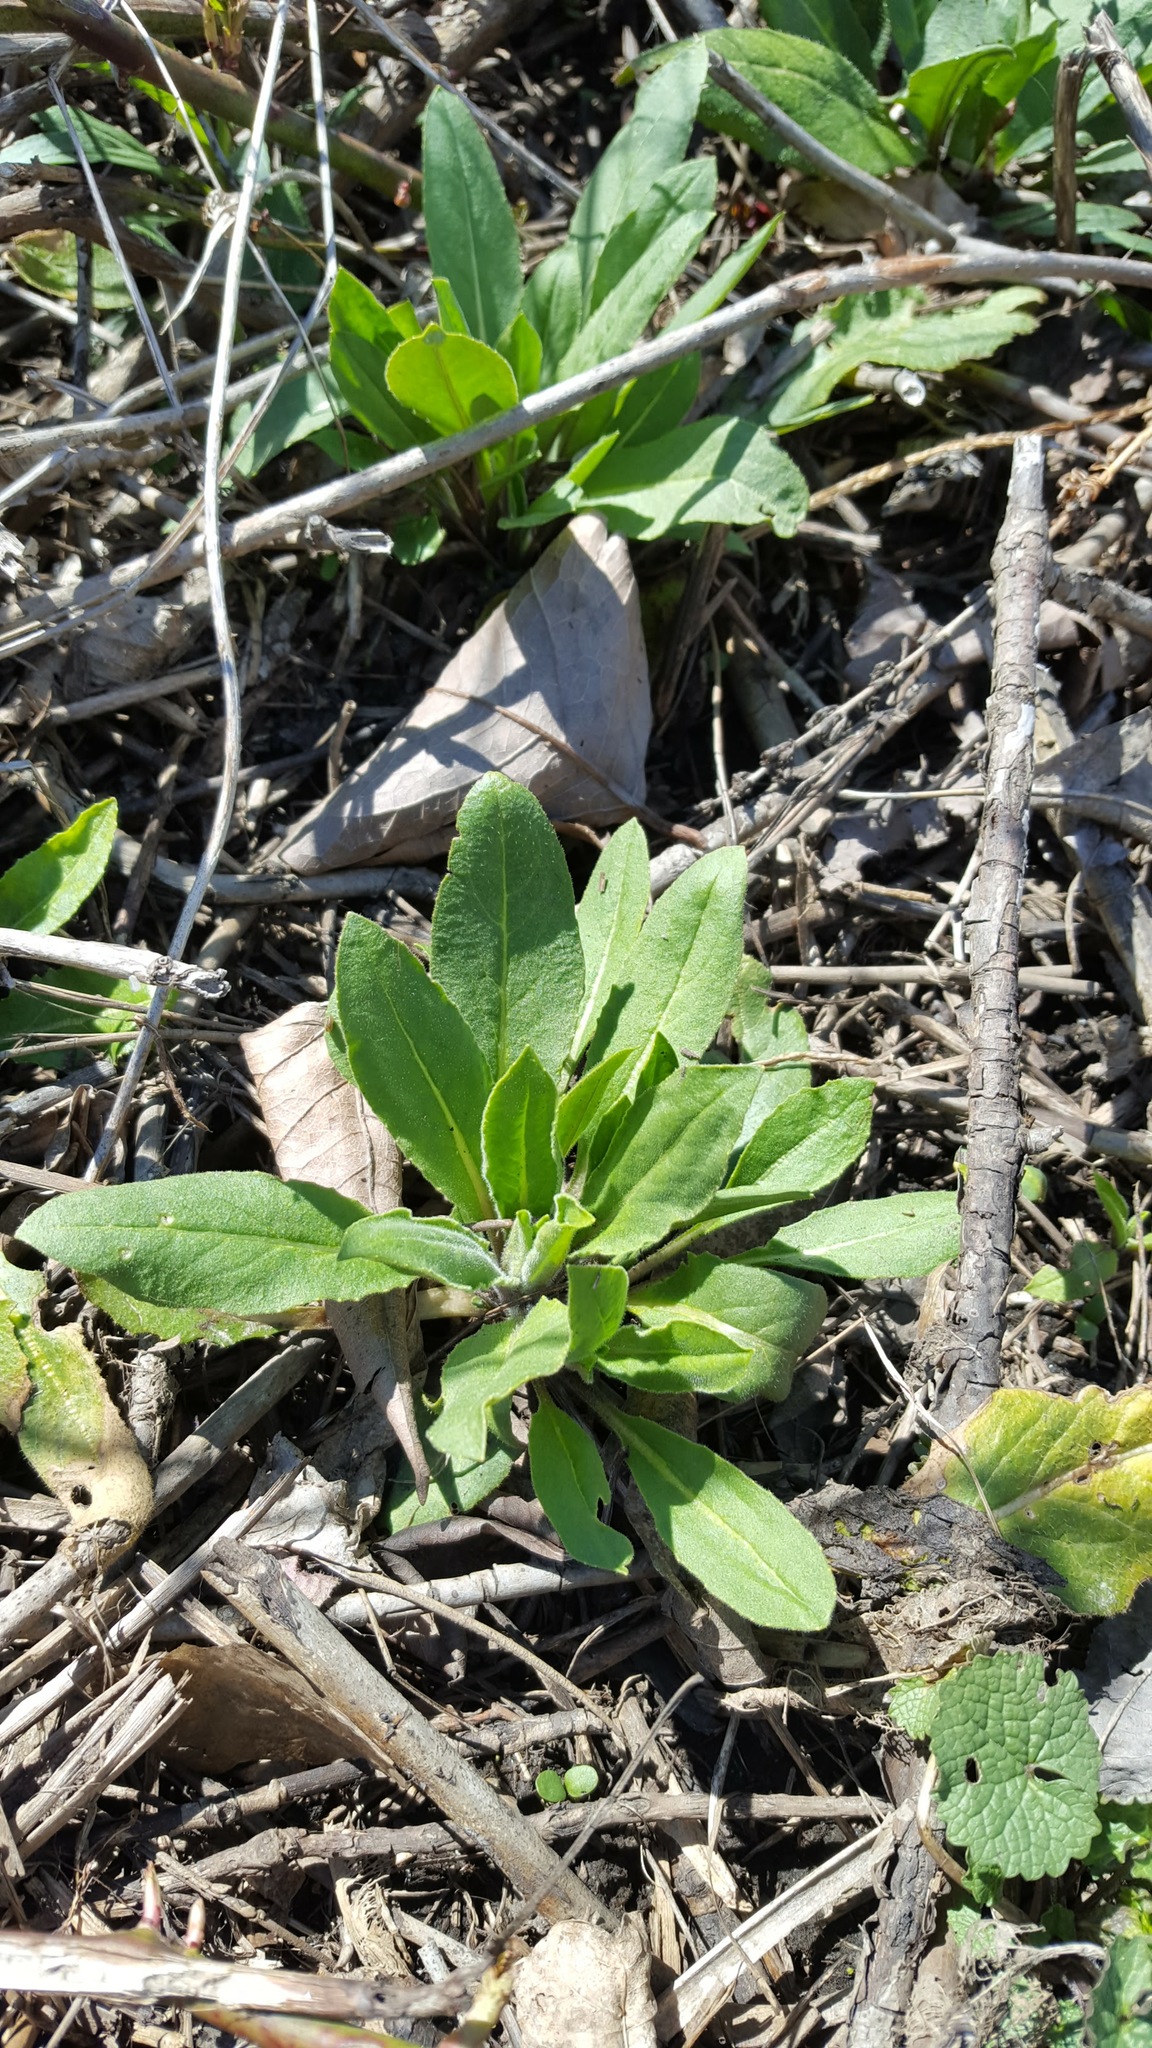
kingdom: Plantae
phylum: Tracheophyta
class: Magnoliopsida
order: Brassicales
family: Brassicaceae
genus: Hesperis
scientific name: Hesperis matronalis
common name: Dame's-violet
